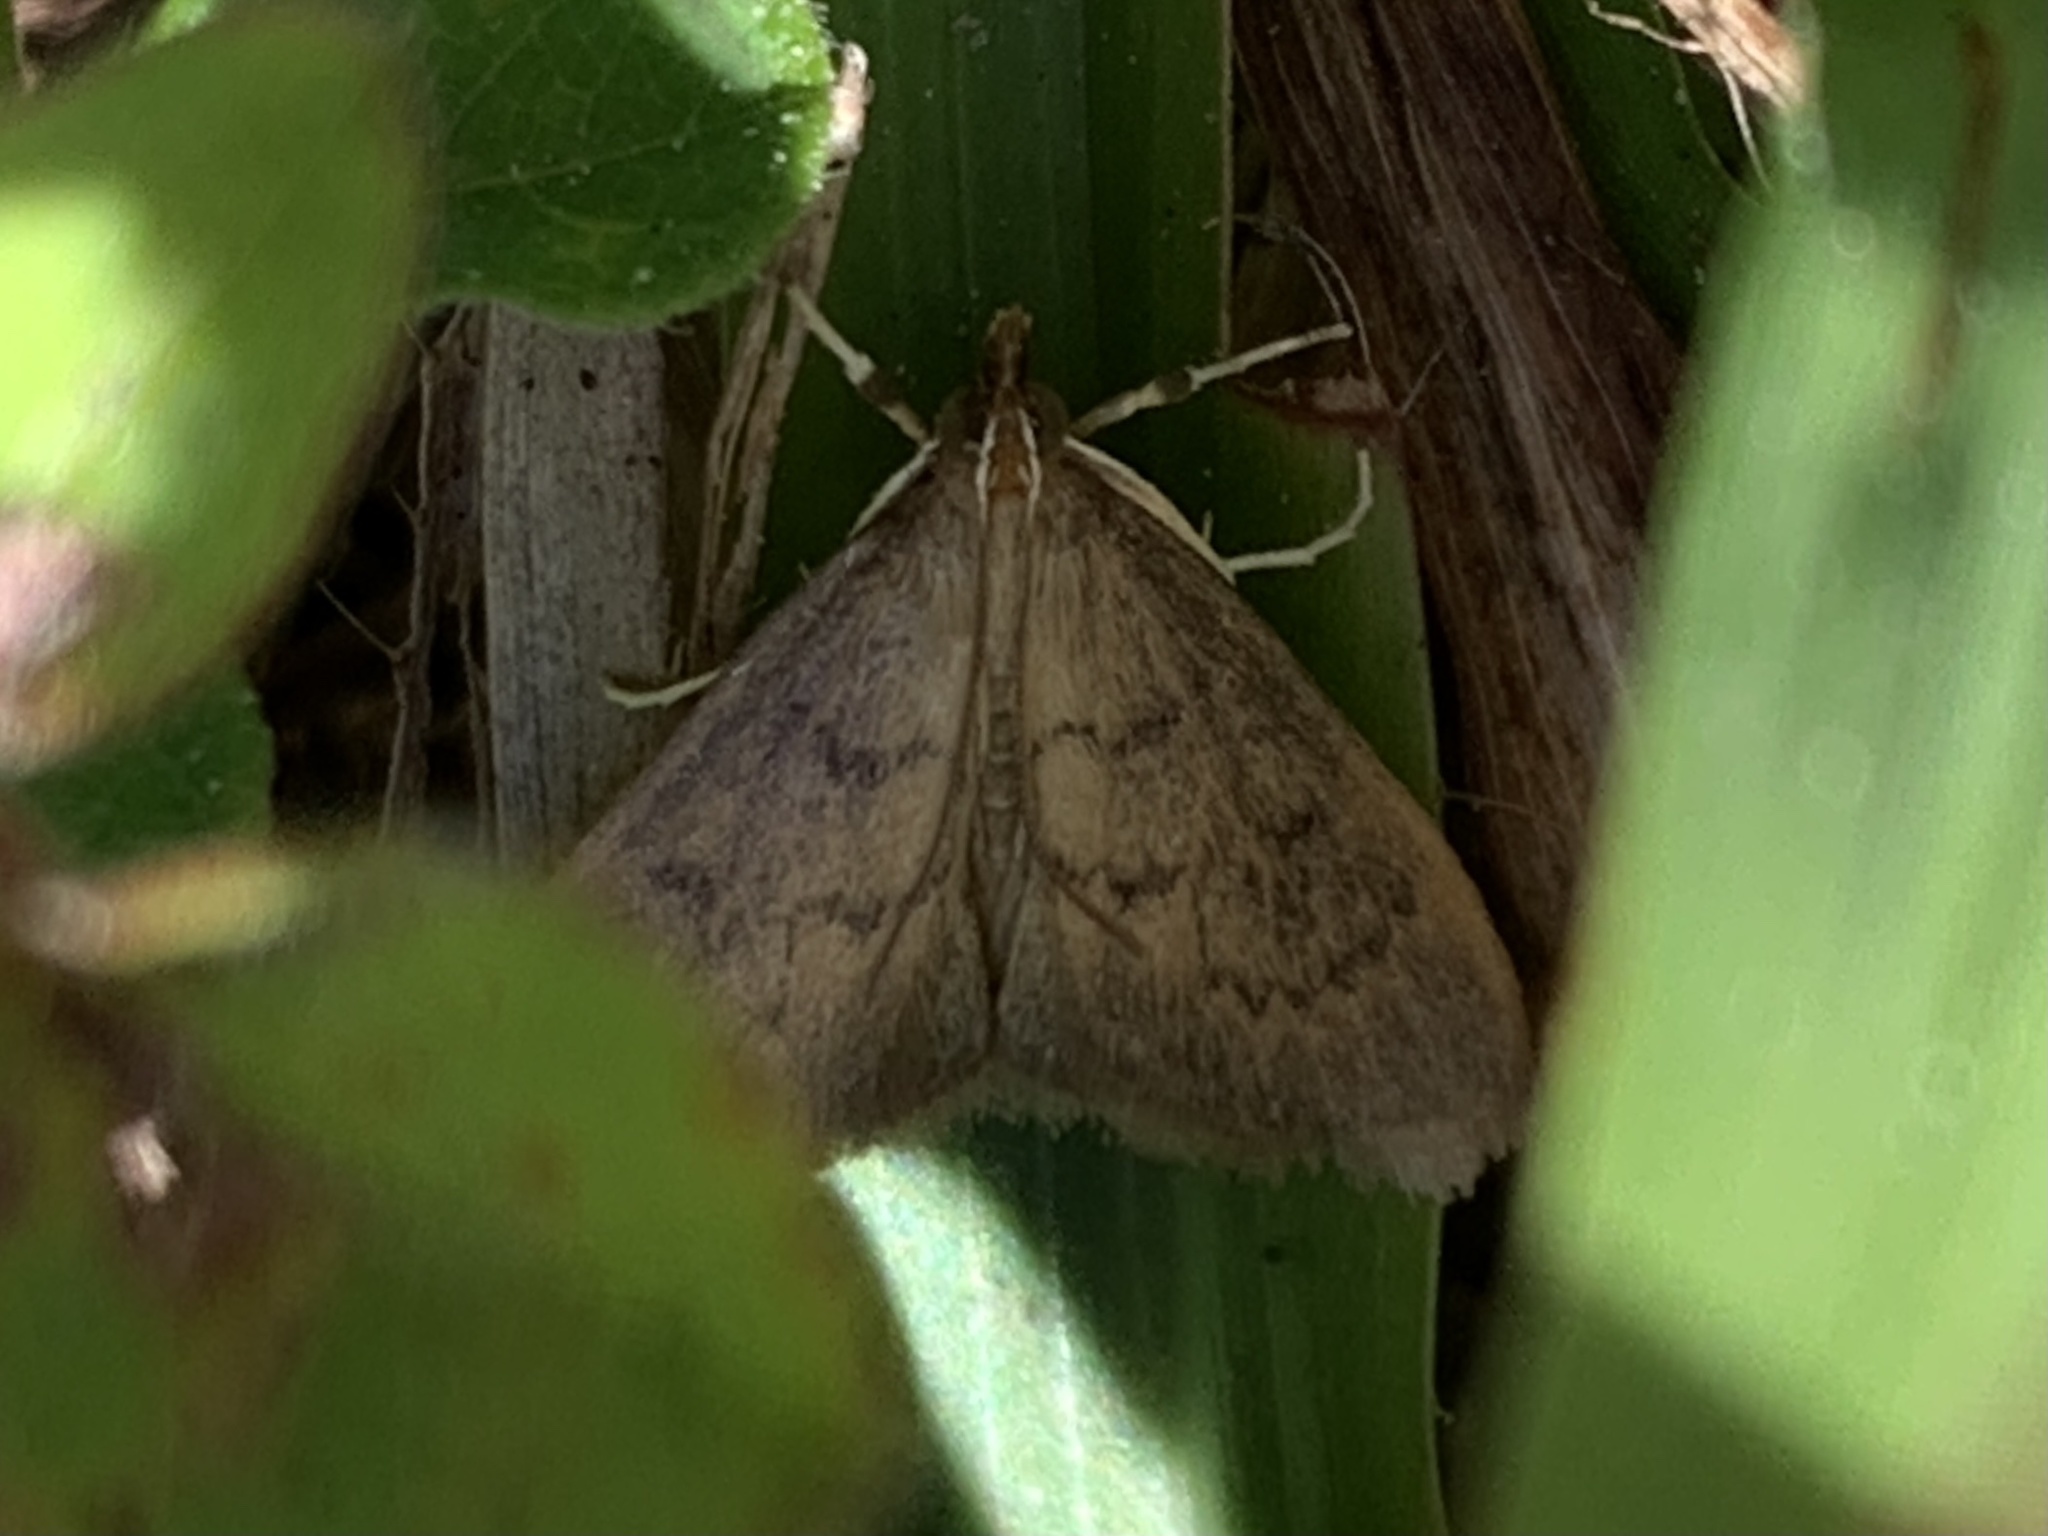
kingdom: Animalia
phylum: Arthropoda
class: Insecta
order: Lepidoptera
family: Crambidae
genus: Oenobotys
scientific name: Oenobotys vinotinctalis
